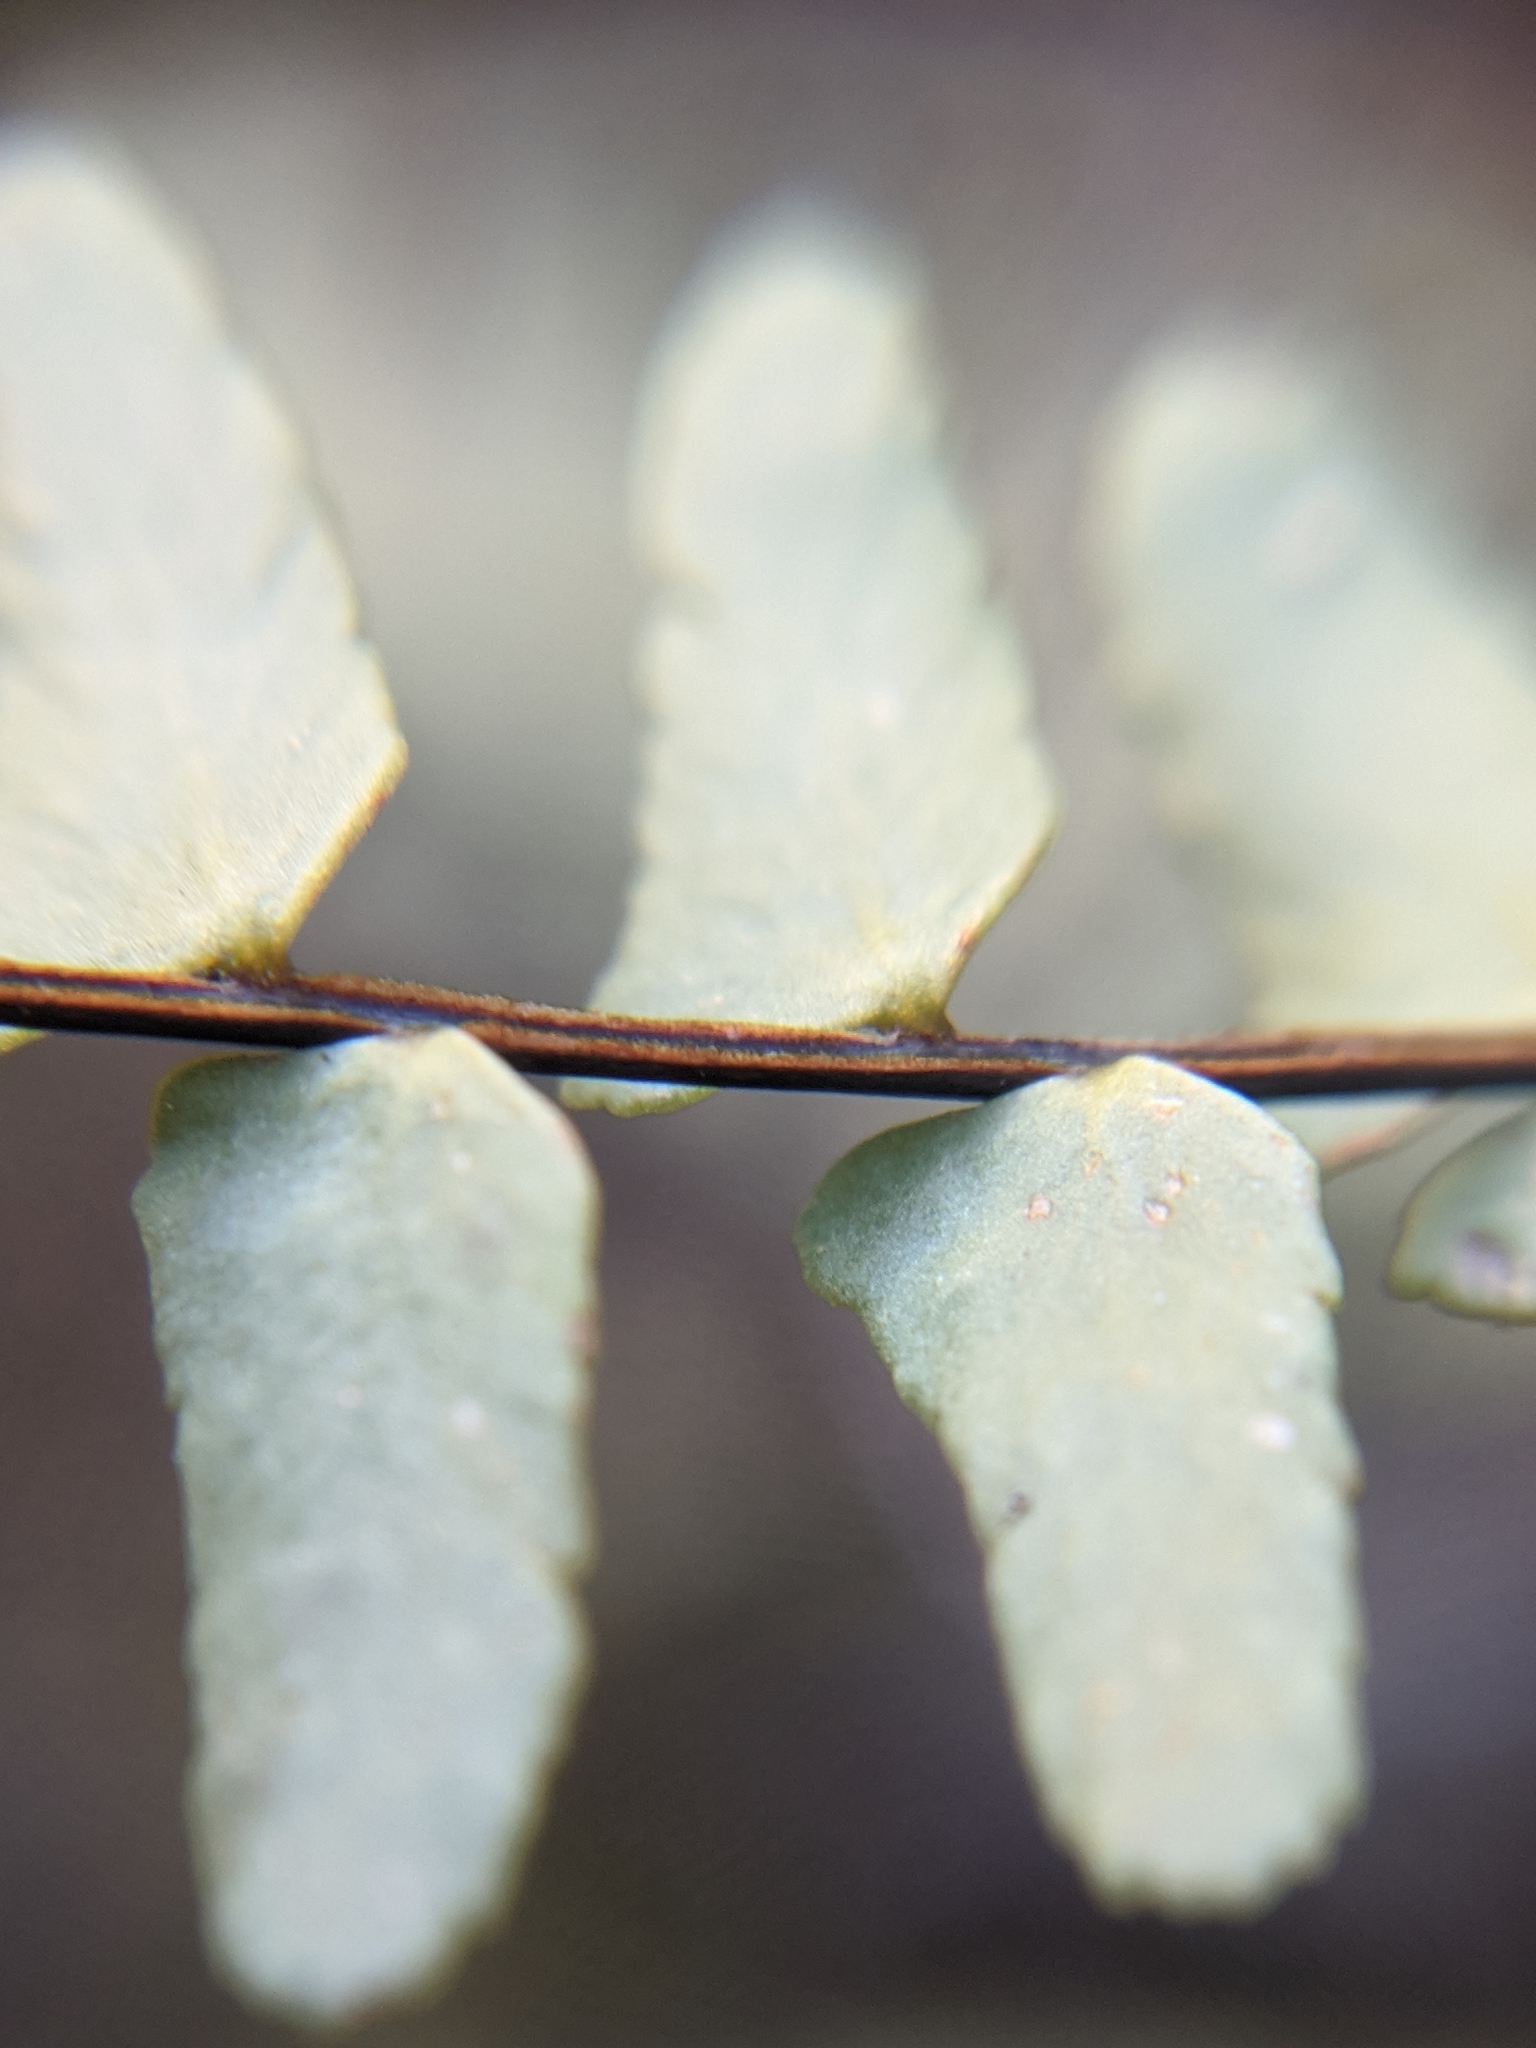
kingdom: Plantae
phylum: Tracheophyta
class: Polypodiopsida
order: Polypodiales
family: Aspleniaceae
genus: Asplenium
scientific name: Asplenium resiliens
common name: Blackstem spleenwort
